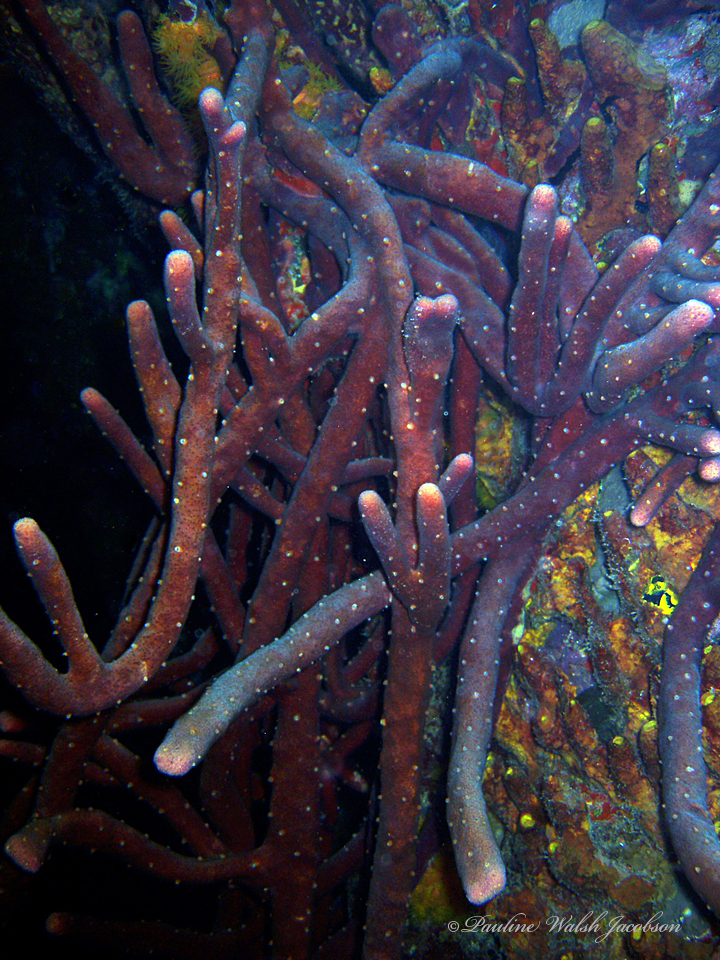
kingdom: Animalia
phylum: Porifera
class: Demospongiae
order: Verongiida
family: Aplysinidae
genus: Aplysina
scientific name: Aplysina cauliformis
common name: Branching candle sponge
